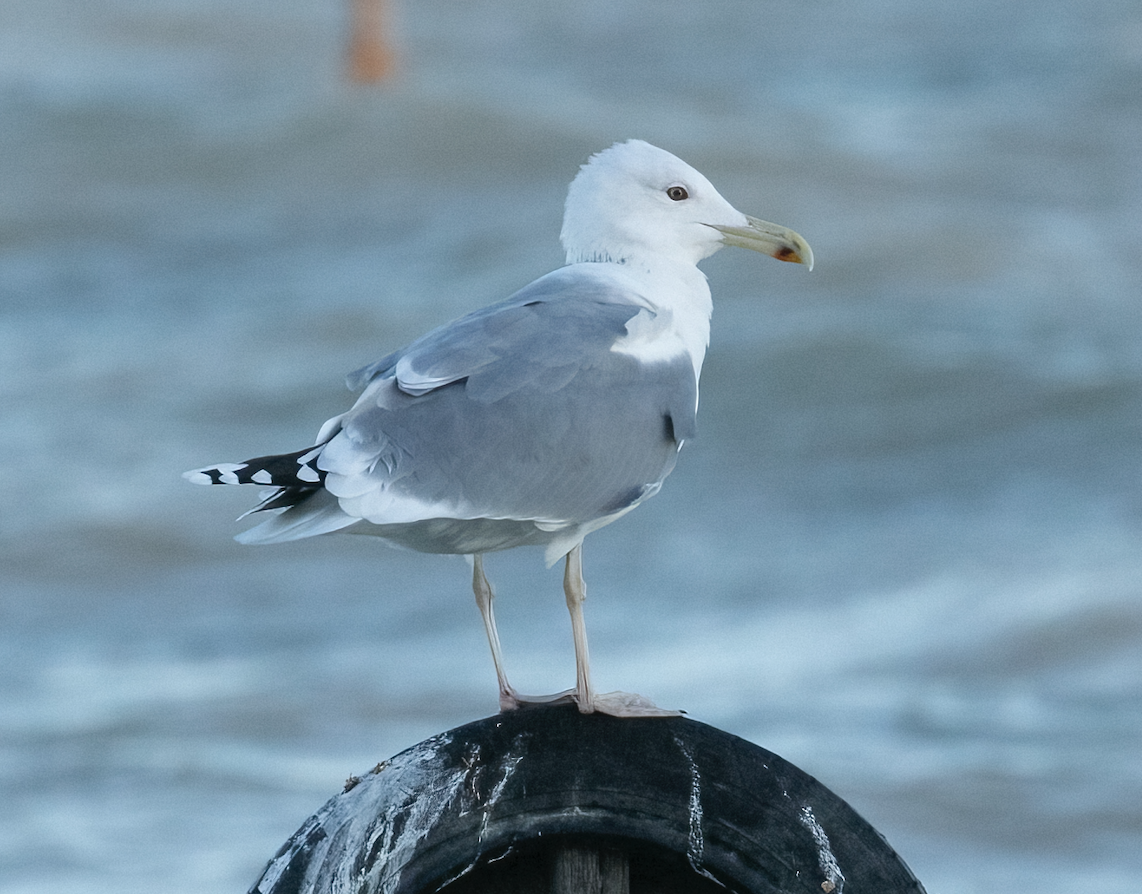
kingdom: Animalia
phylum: Chordata
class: Aves
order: Charadriiformes
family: Laridae
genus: Larus
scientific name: Larus cachinnans
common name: Caspian gull
